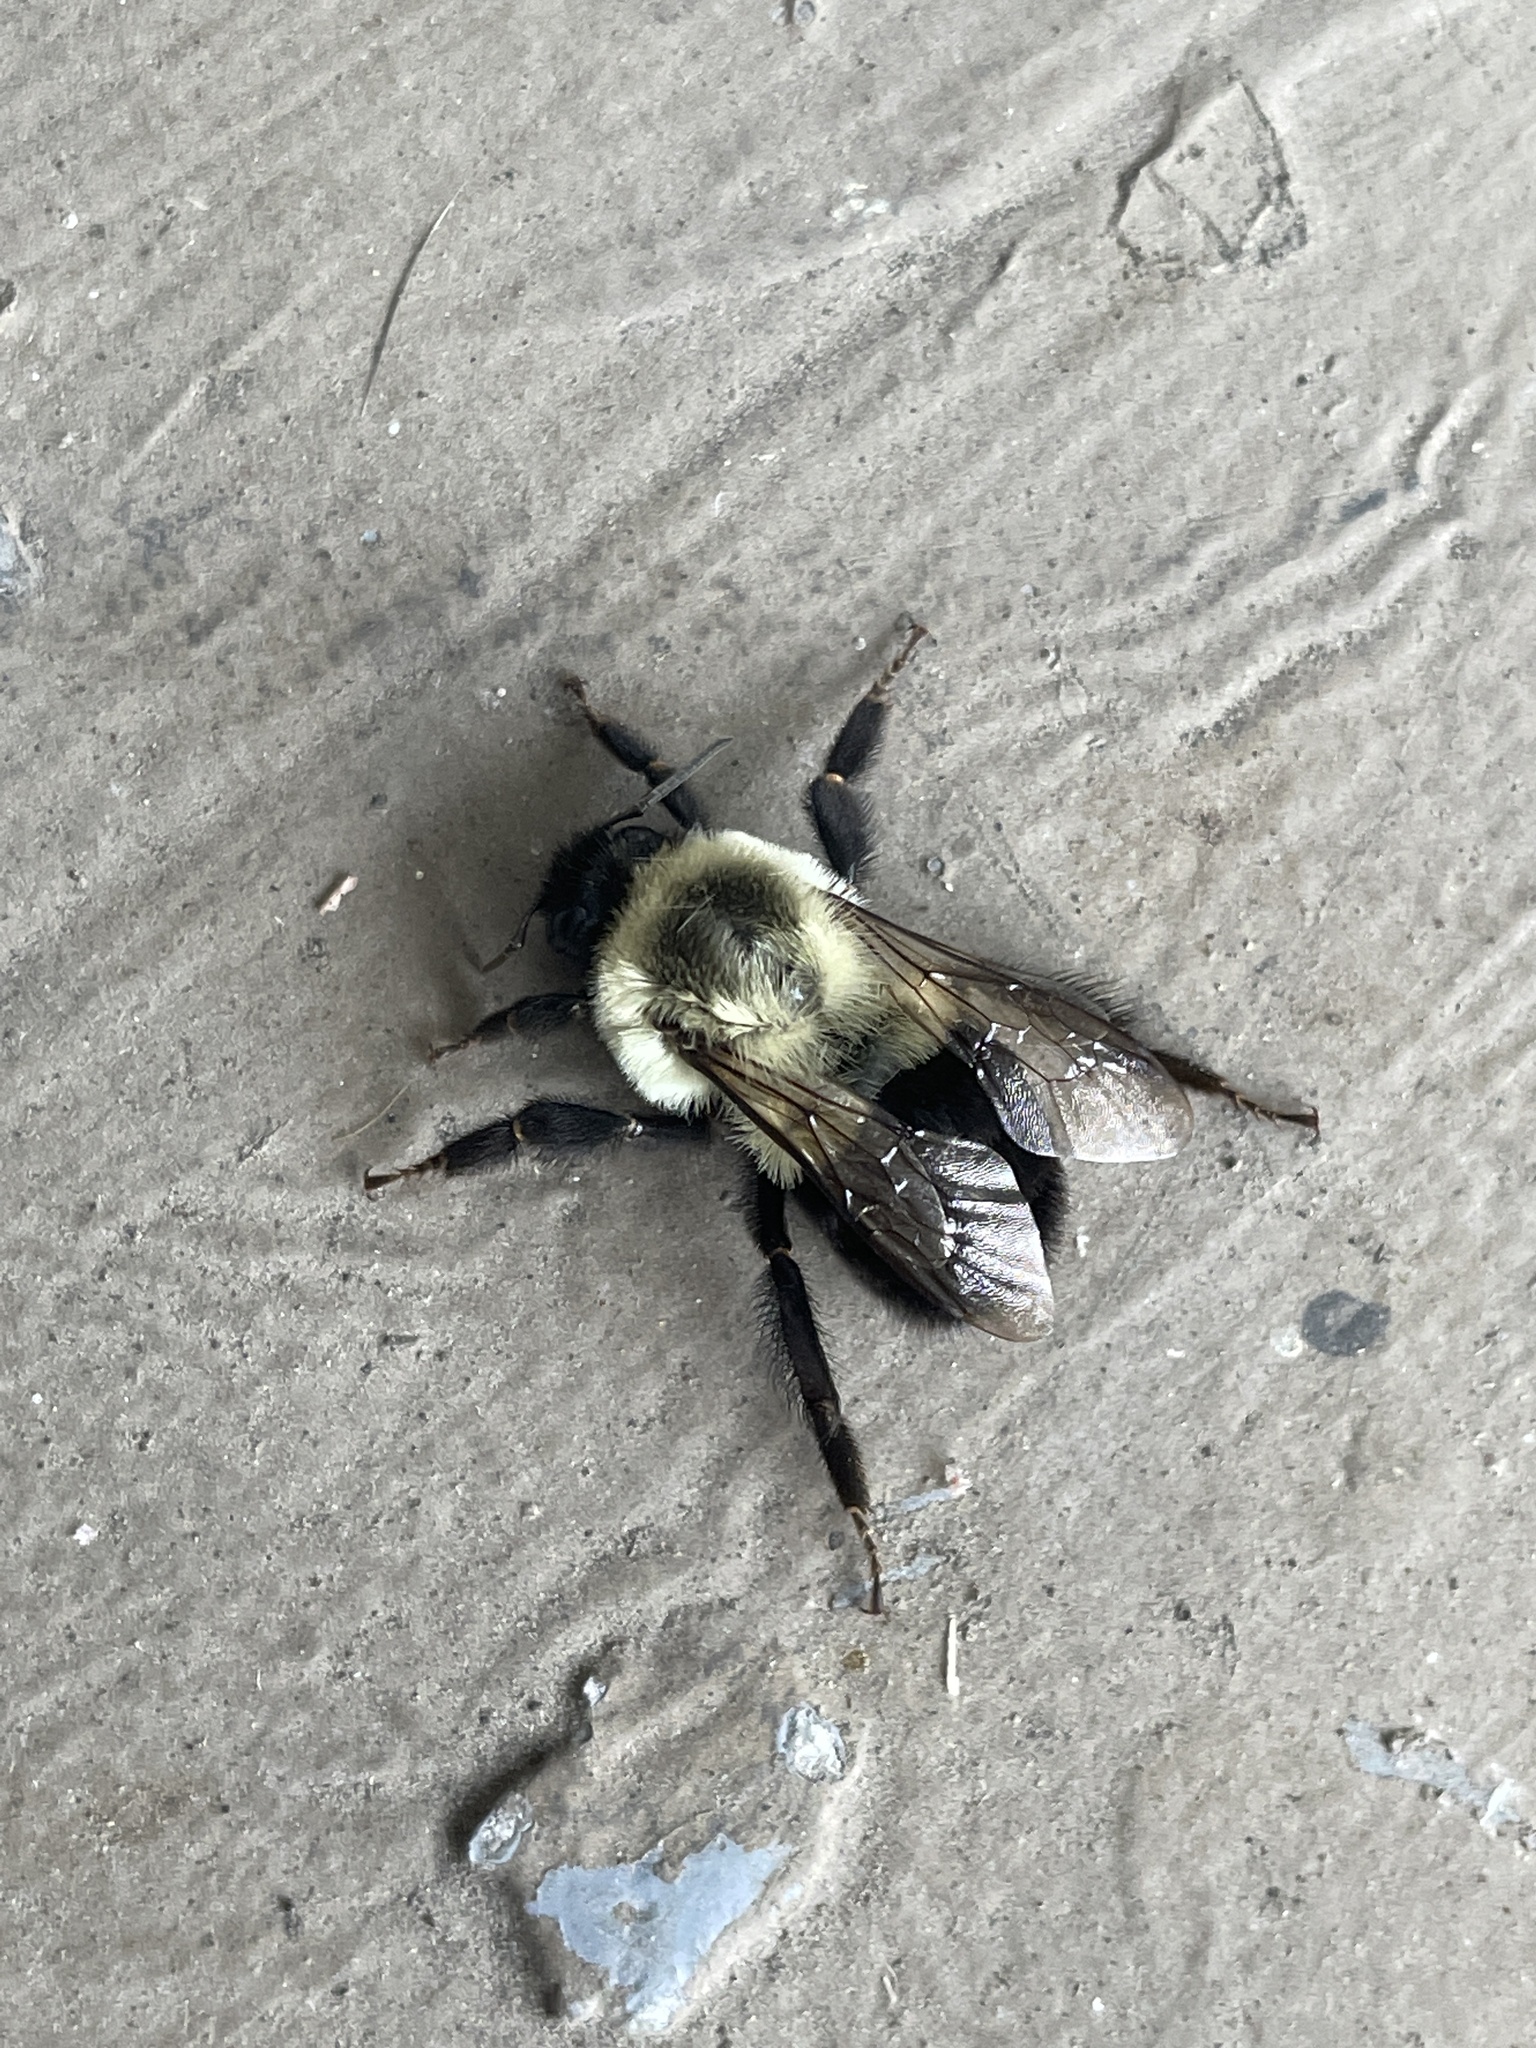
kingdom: Animalia
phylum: Arthropoda
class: Insecta
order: Hymenoptera
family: Apidae
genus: Bombus
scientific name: Bombus impatiens
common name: Common eastern bumble bee
